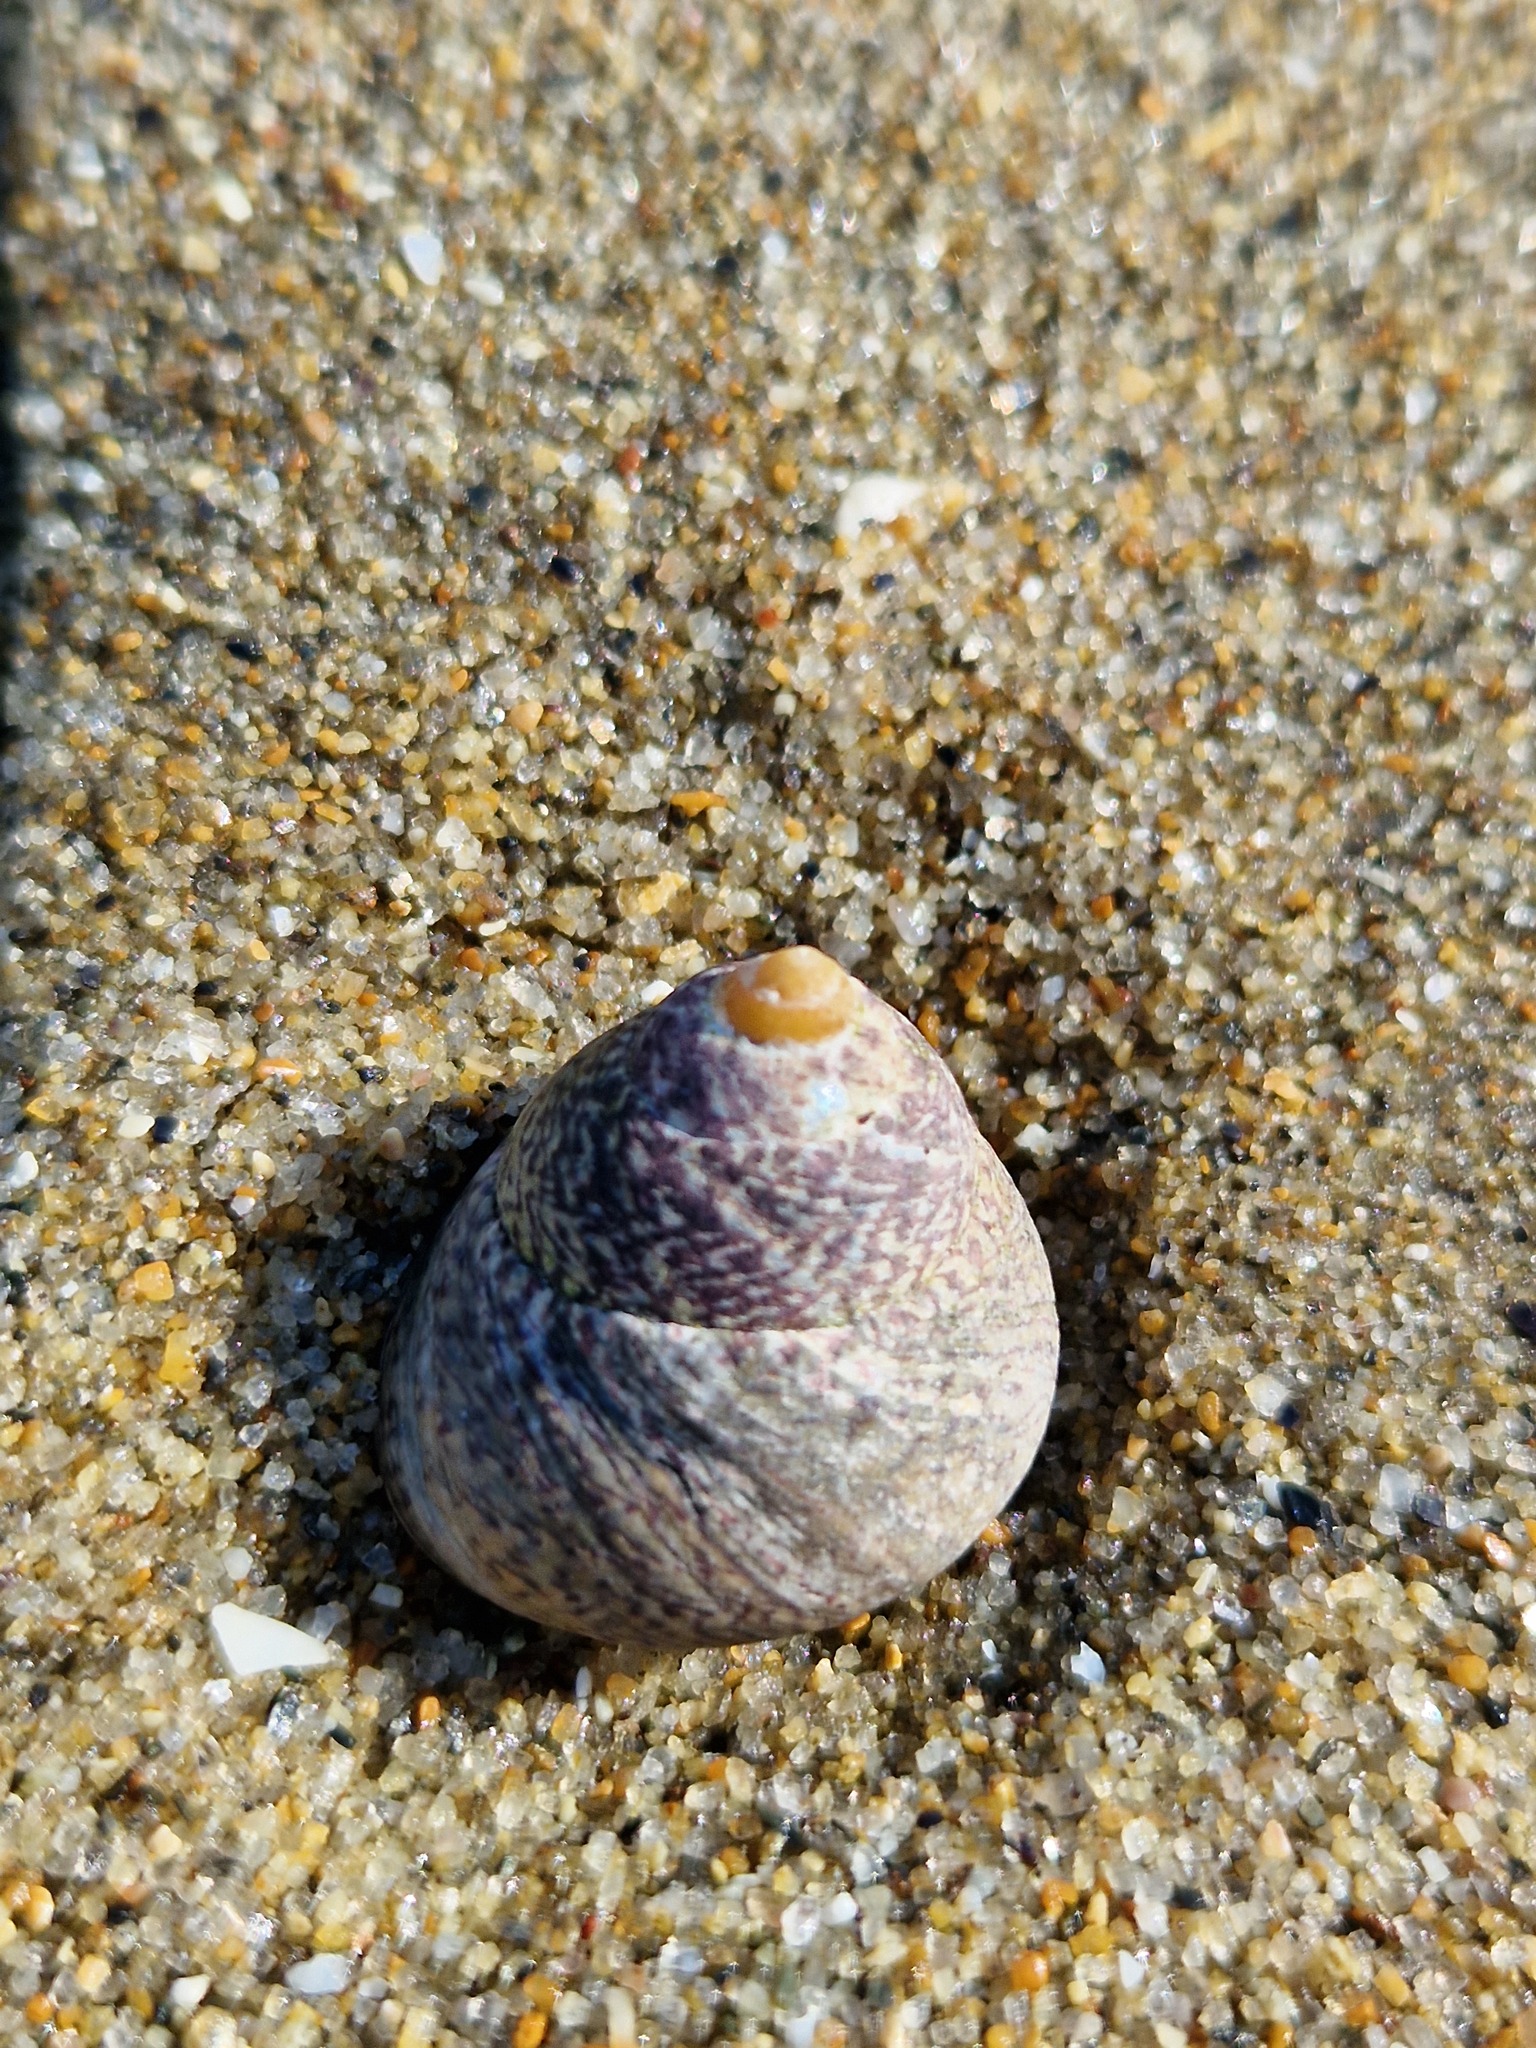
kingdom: Animalia
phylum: Mollusca
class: Gastropoda
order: Trochida
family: Trochidae
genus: Phorcus
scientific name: Phorcus lineatus
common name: Toothed top shell
